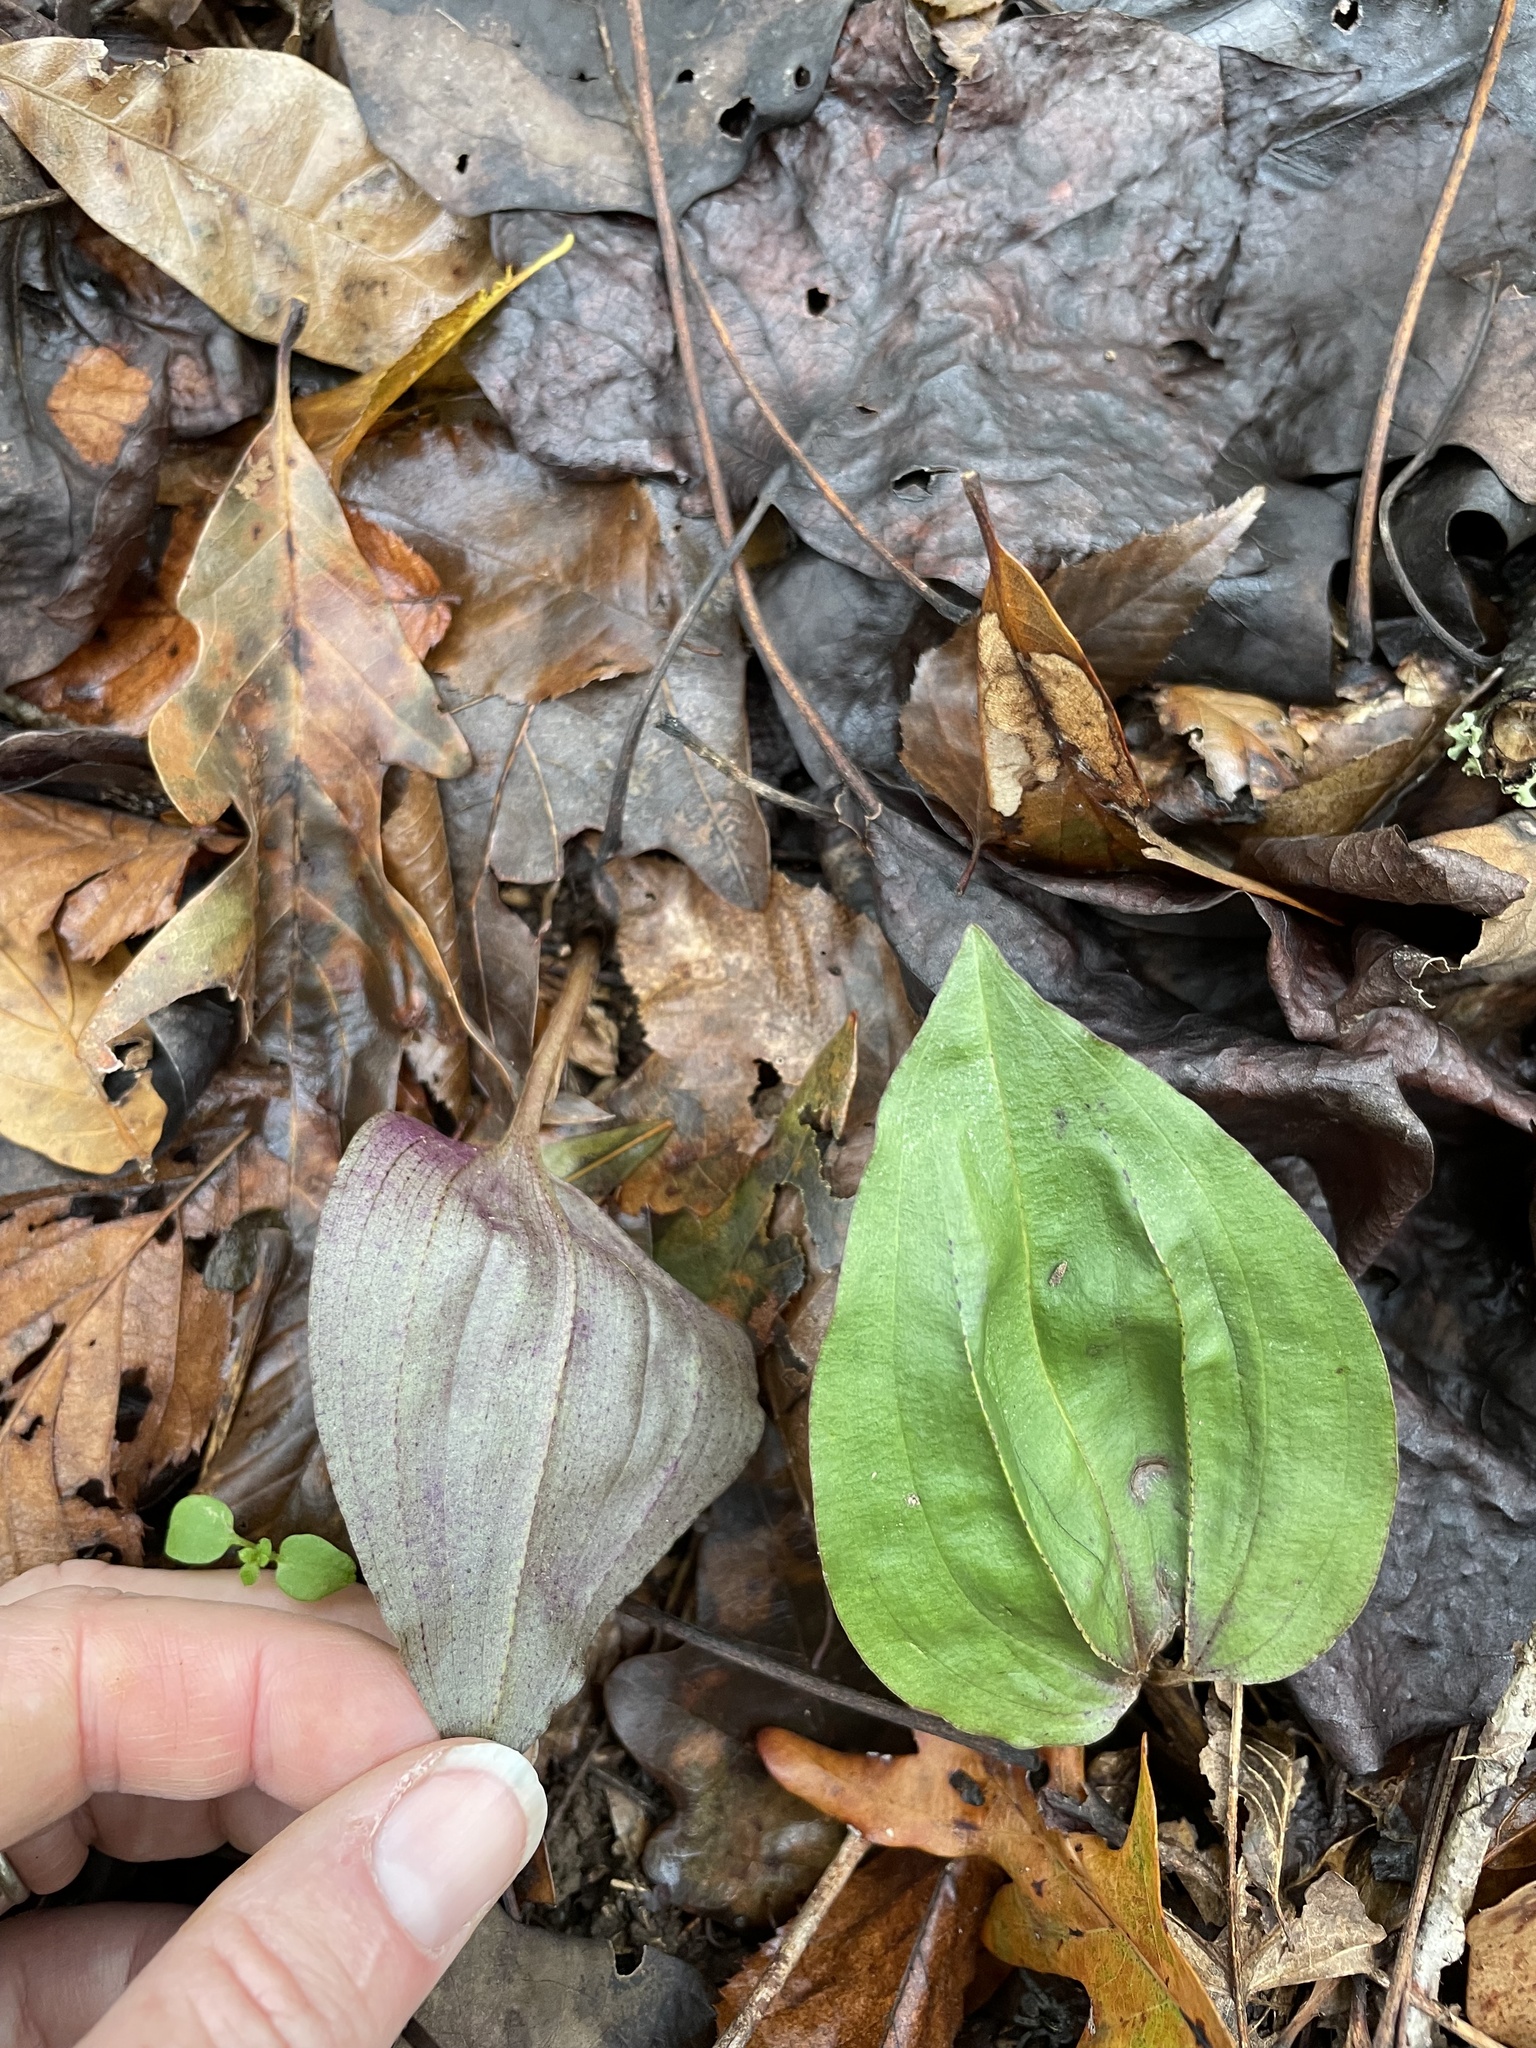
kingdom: Plantae
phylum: Tracheophyta
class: Liliopsida
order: Asparagales
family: Orchidaceae
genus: Tipularia
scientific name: Tipularia discolor
